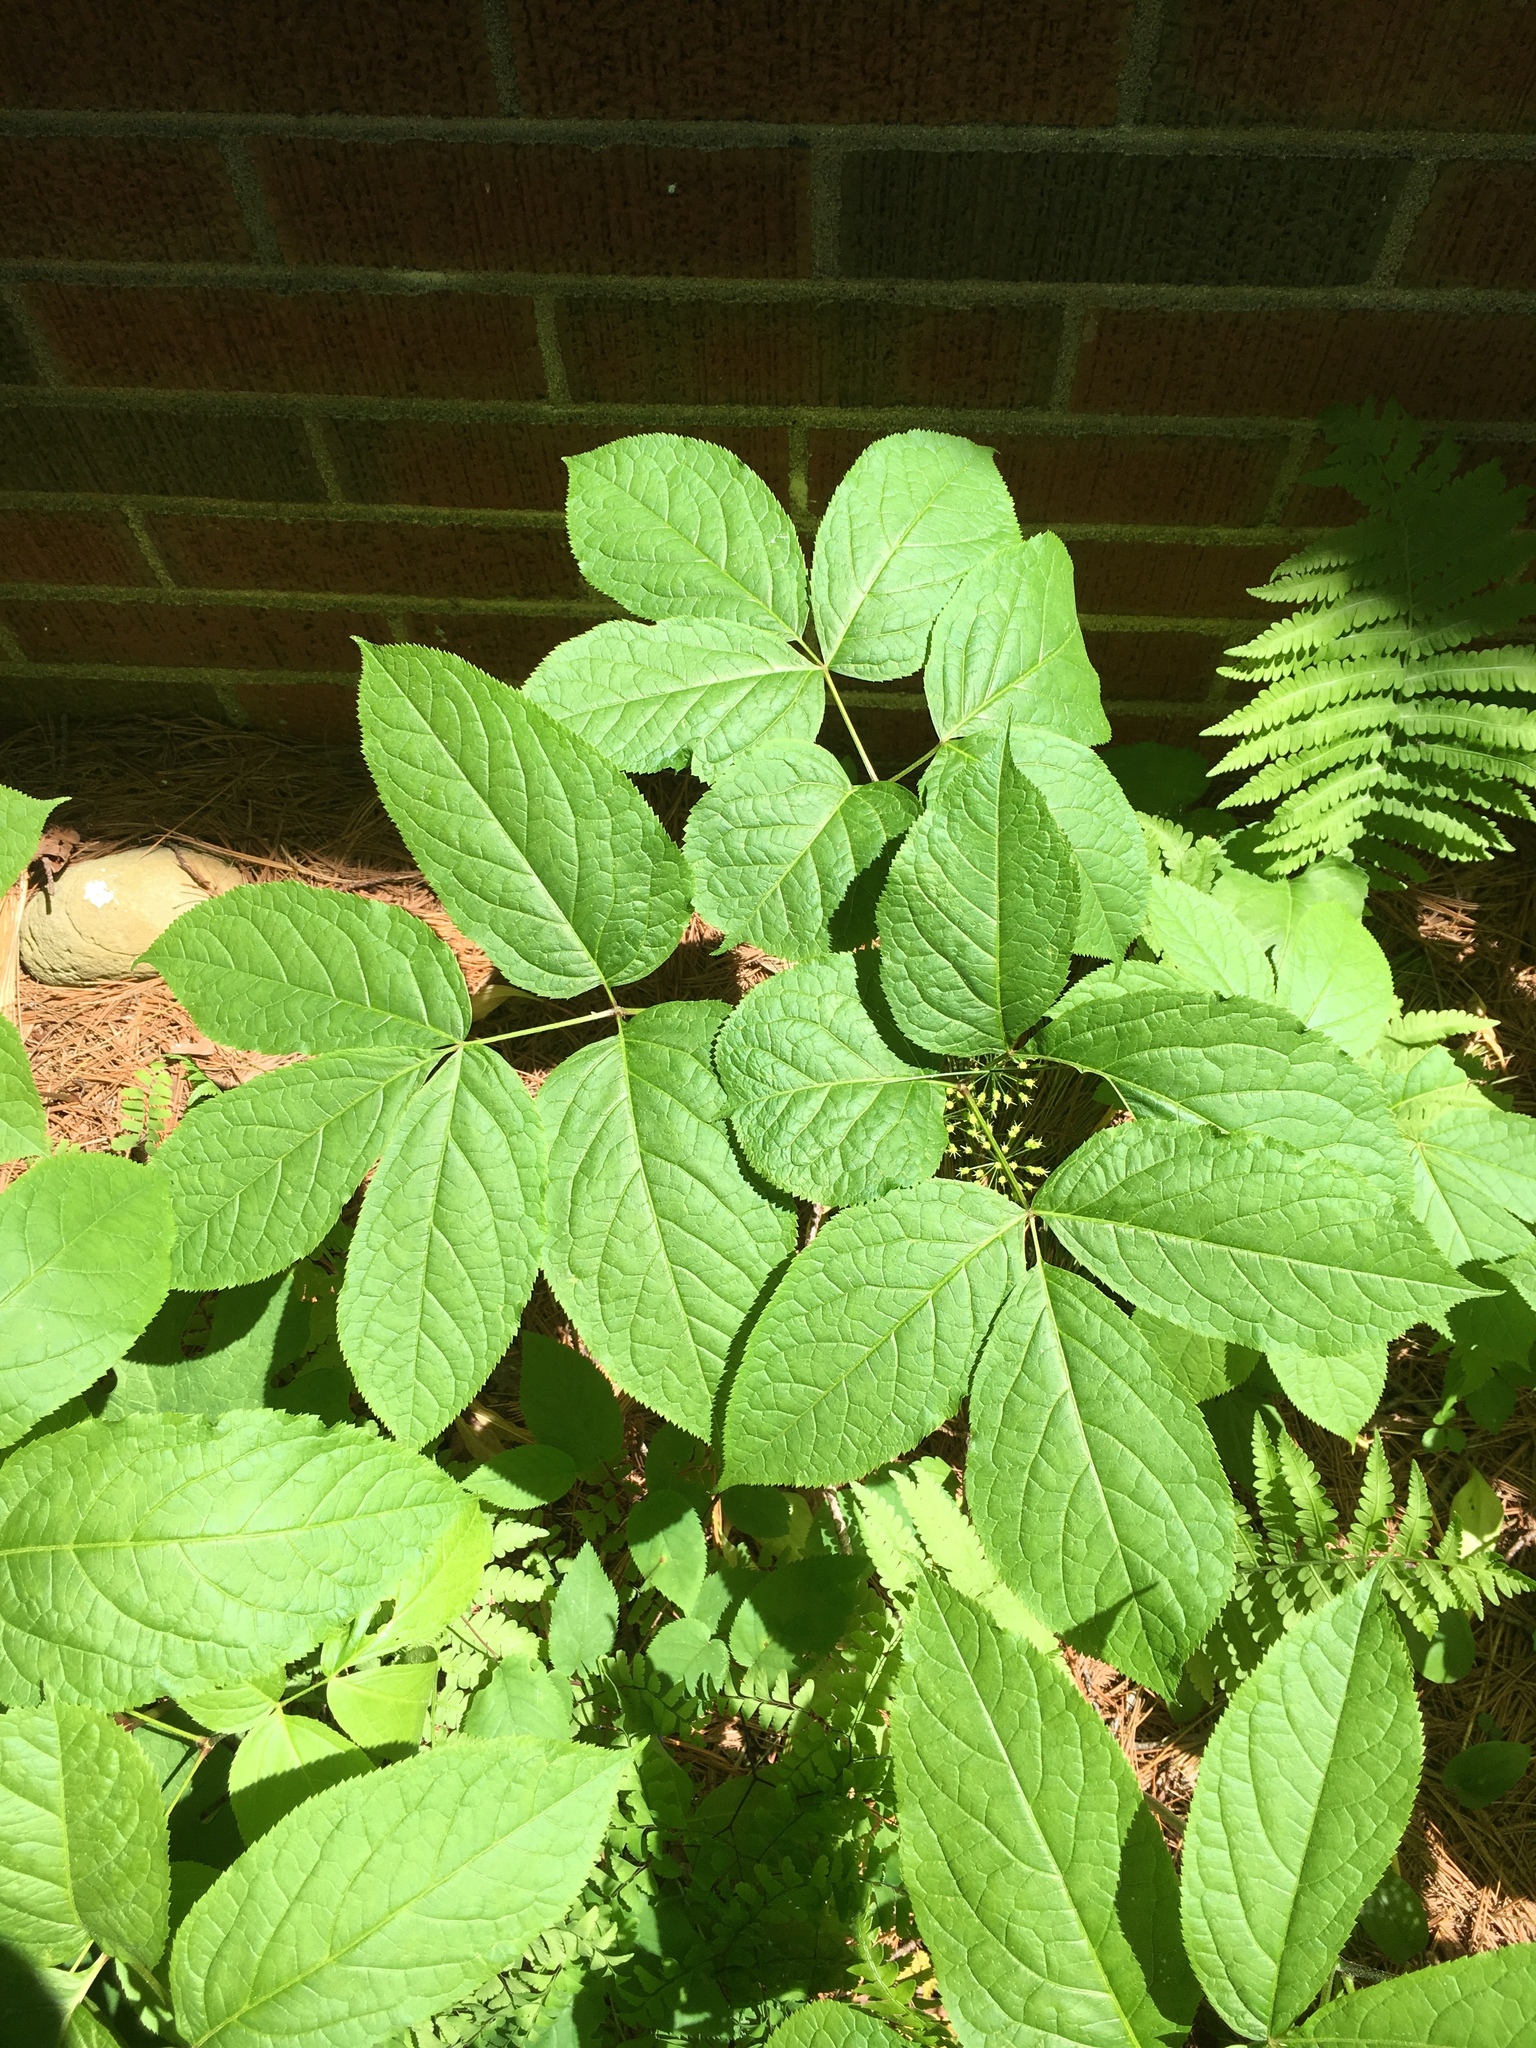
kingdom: Plantae
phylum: Tracheophyta
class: Magnoliopsida
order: Apiales
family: Araliaceae
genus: Aralia
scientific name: Aralia nudicaulis
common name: Wild sarsaparilla
